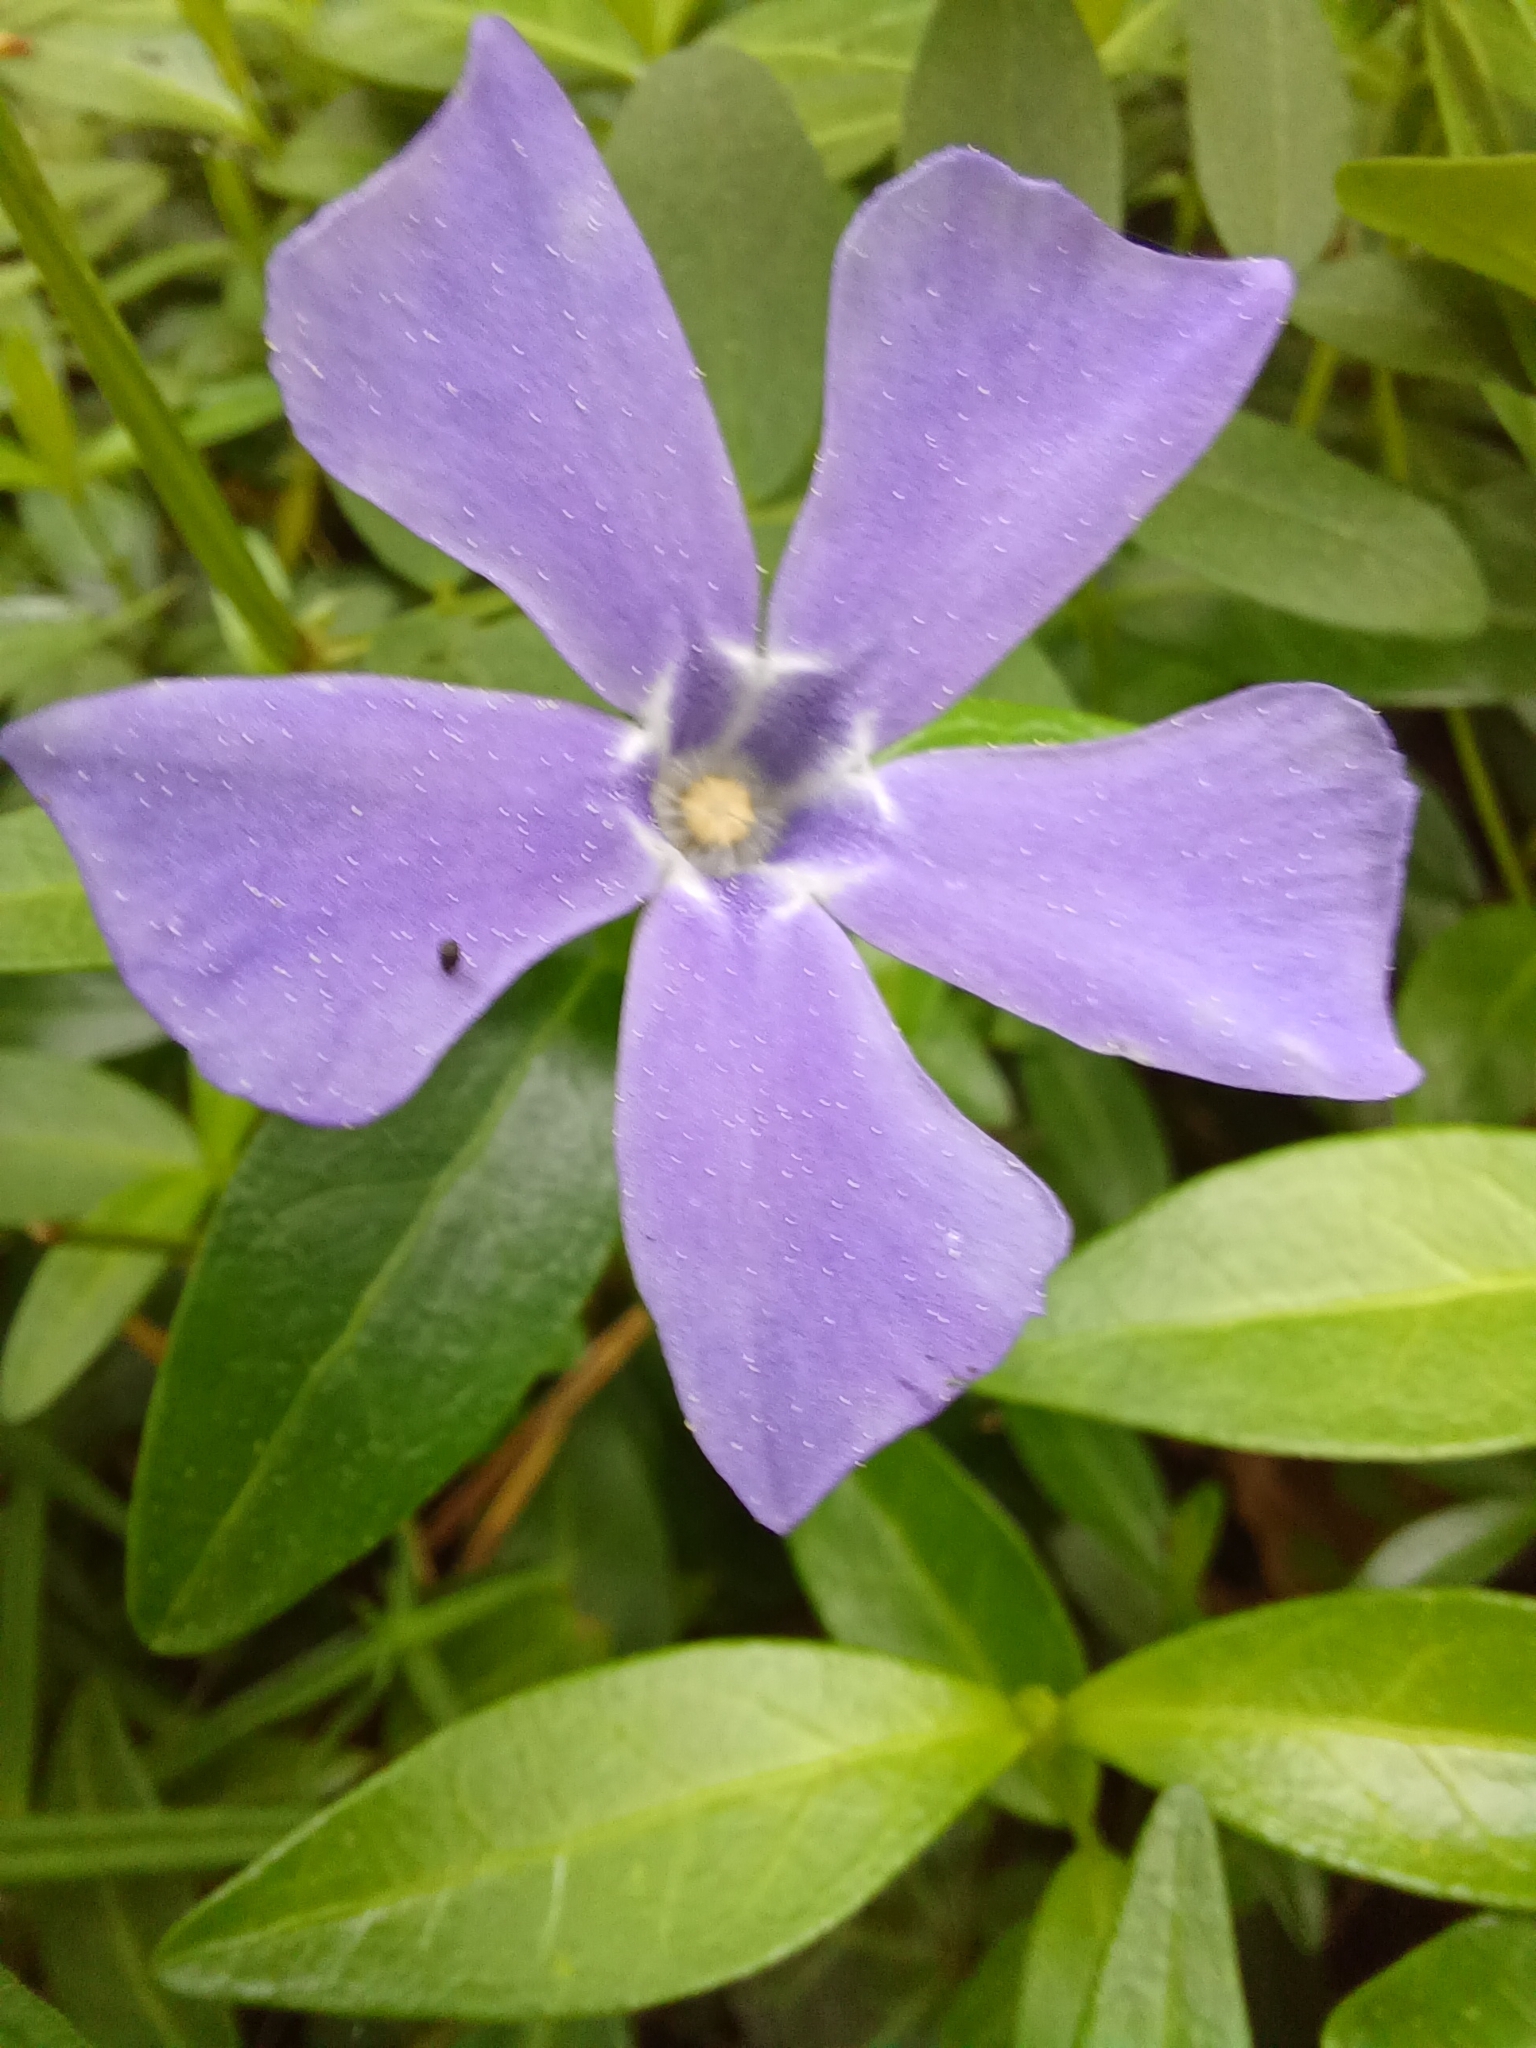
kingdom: Plantae
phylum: Tracheophyta
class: Magnoliopsida
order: Gentianales
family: Apocynaceae
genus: Vinca
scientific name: Vinca minor
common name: Lesser periwinkle
